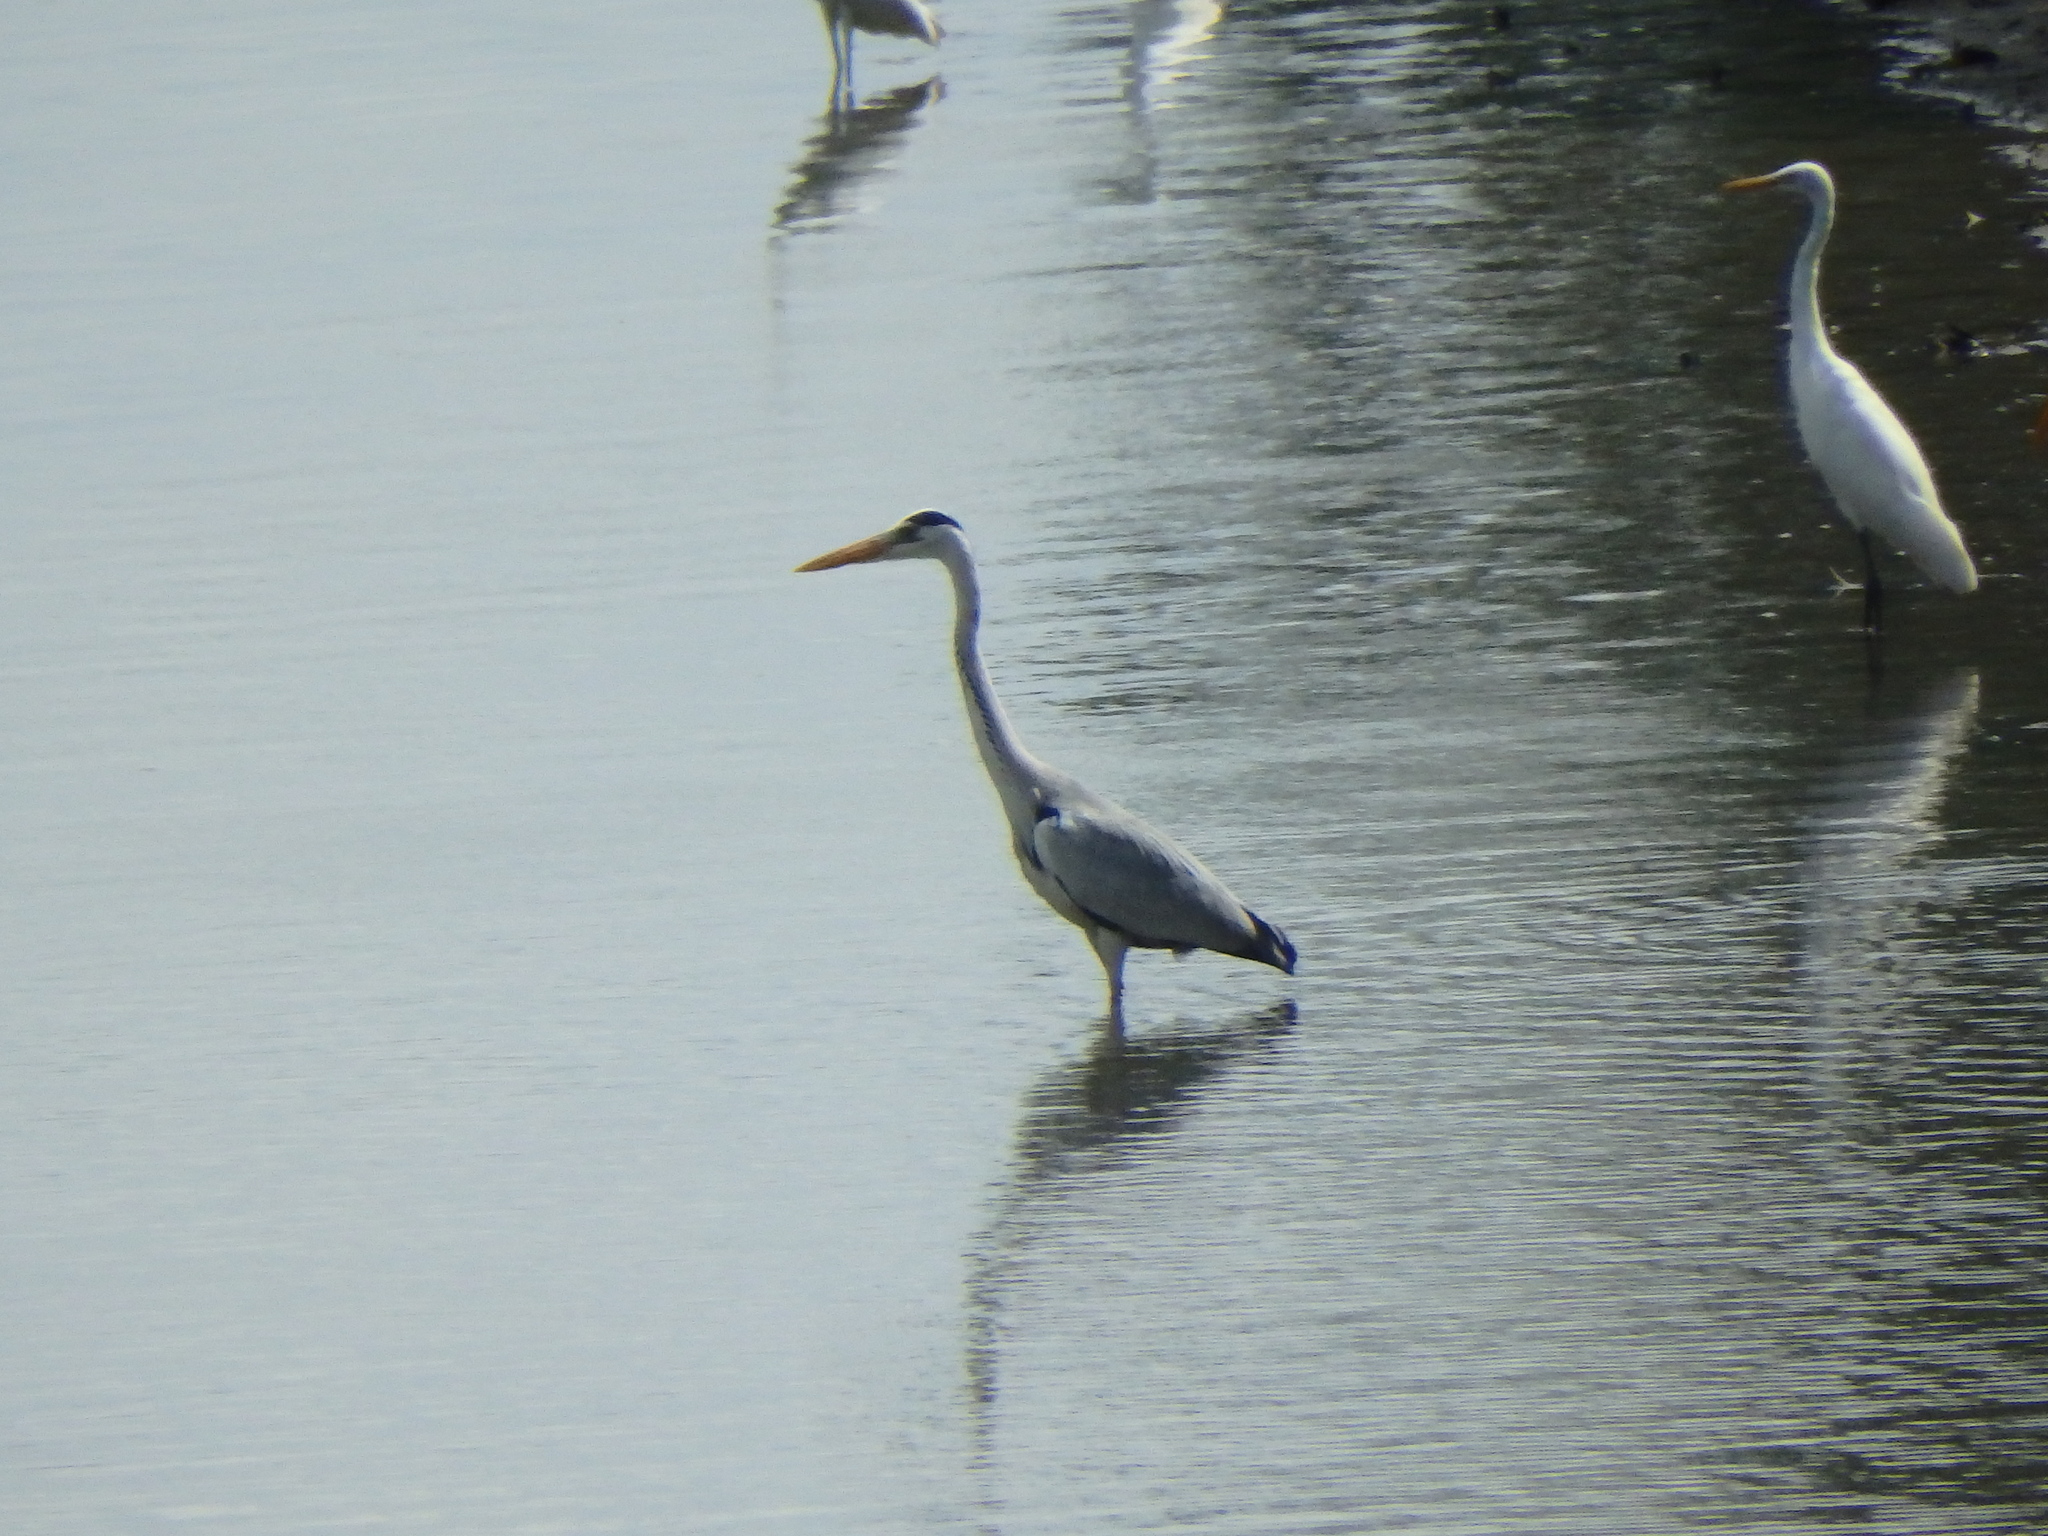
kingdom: Animalia
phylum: Chordata
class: Aves
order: Pelecaniformes
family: Ardeidae
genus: Ardea
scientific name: Ardea cinerea
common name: Grey heron
